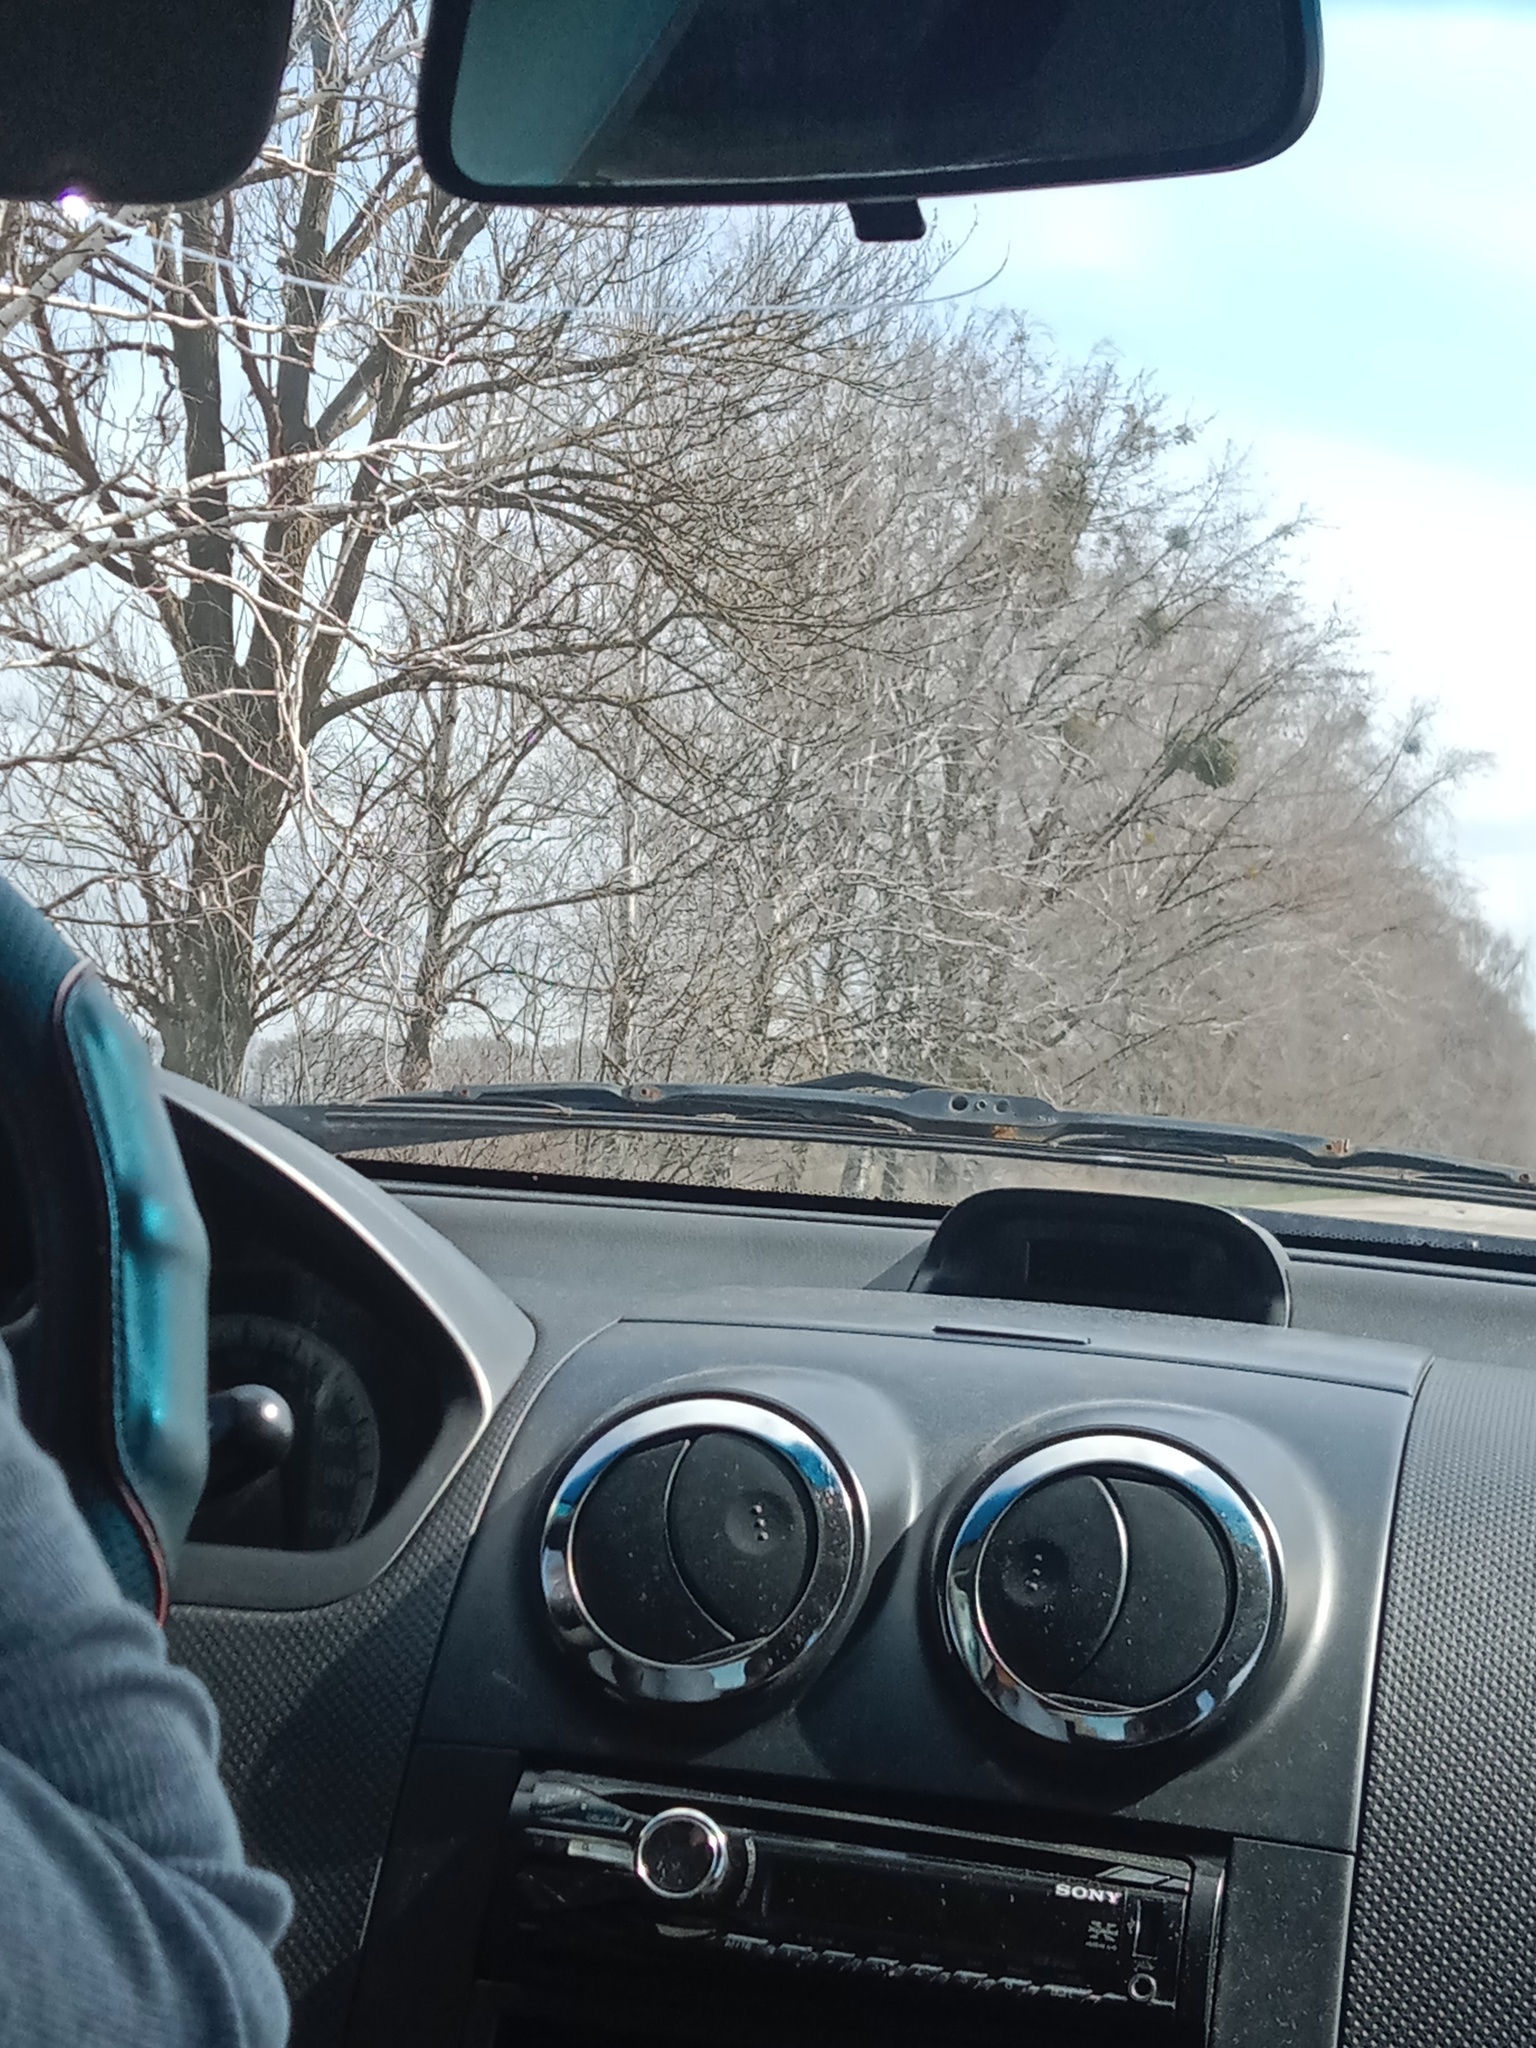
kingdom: Plantae
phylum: Tracheophyta
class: Magnoliopsida
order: Santalales
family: Viscaceae
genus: Viscum
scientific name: Viscum album
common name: Mistletoe
